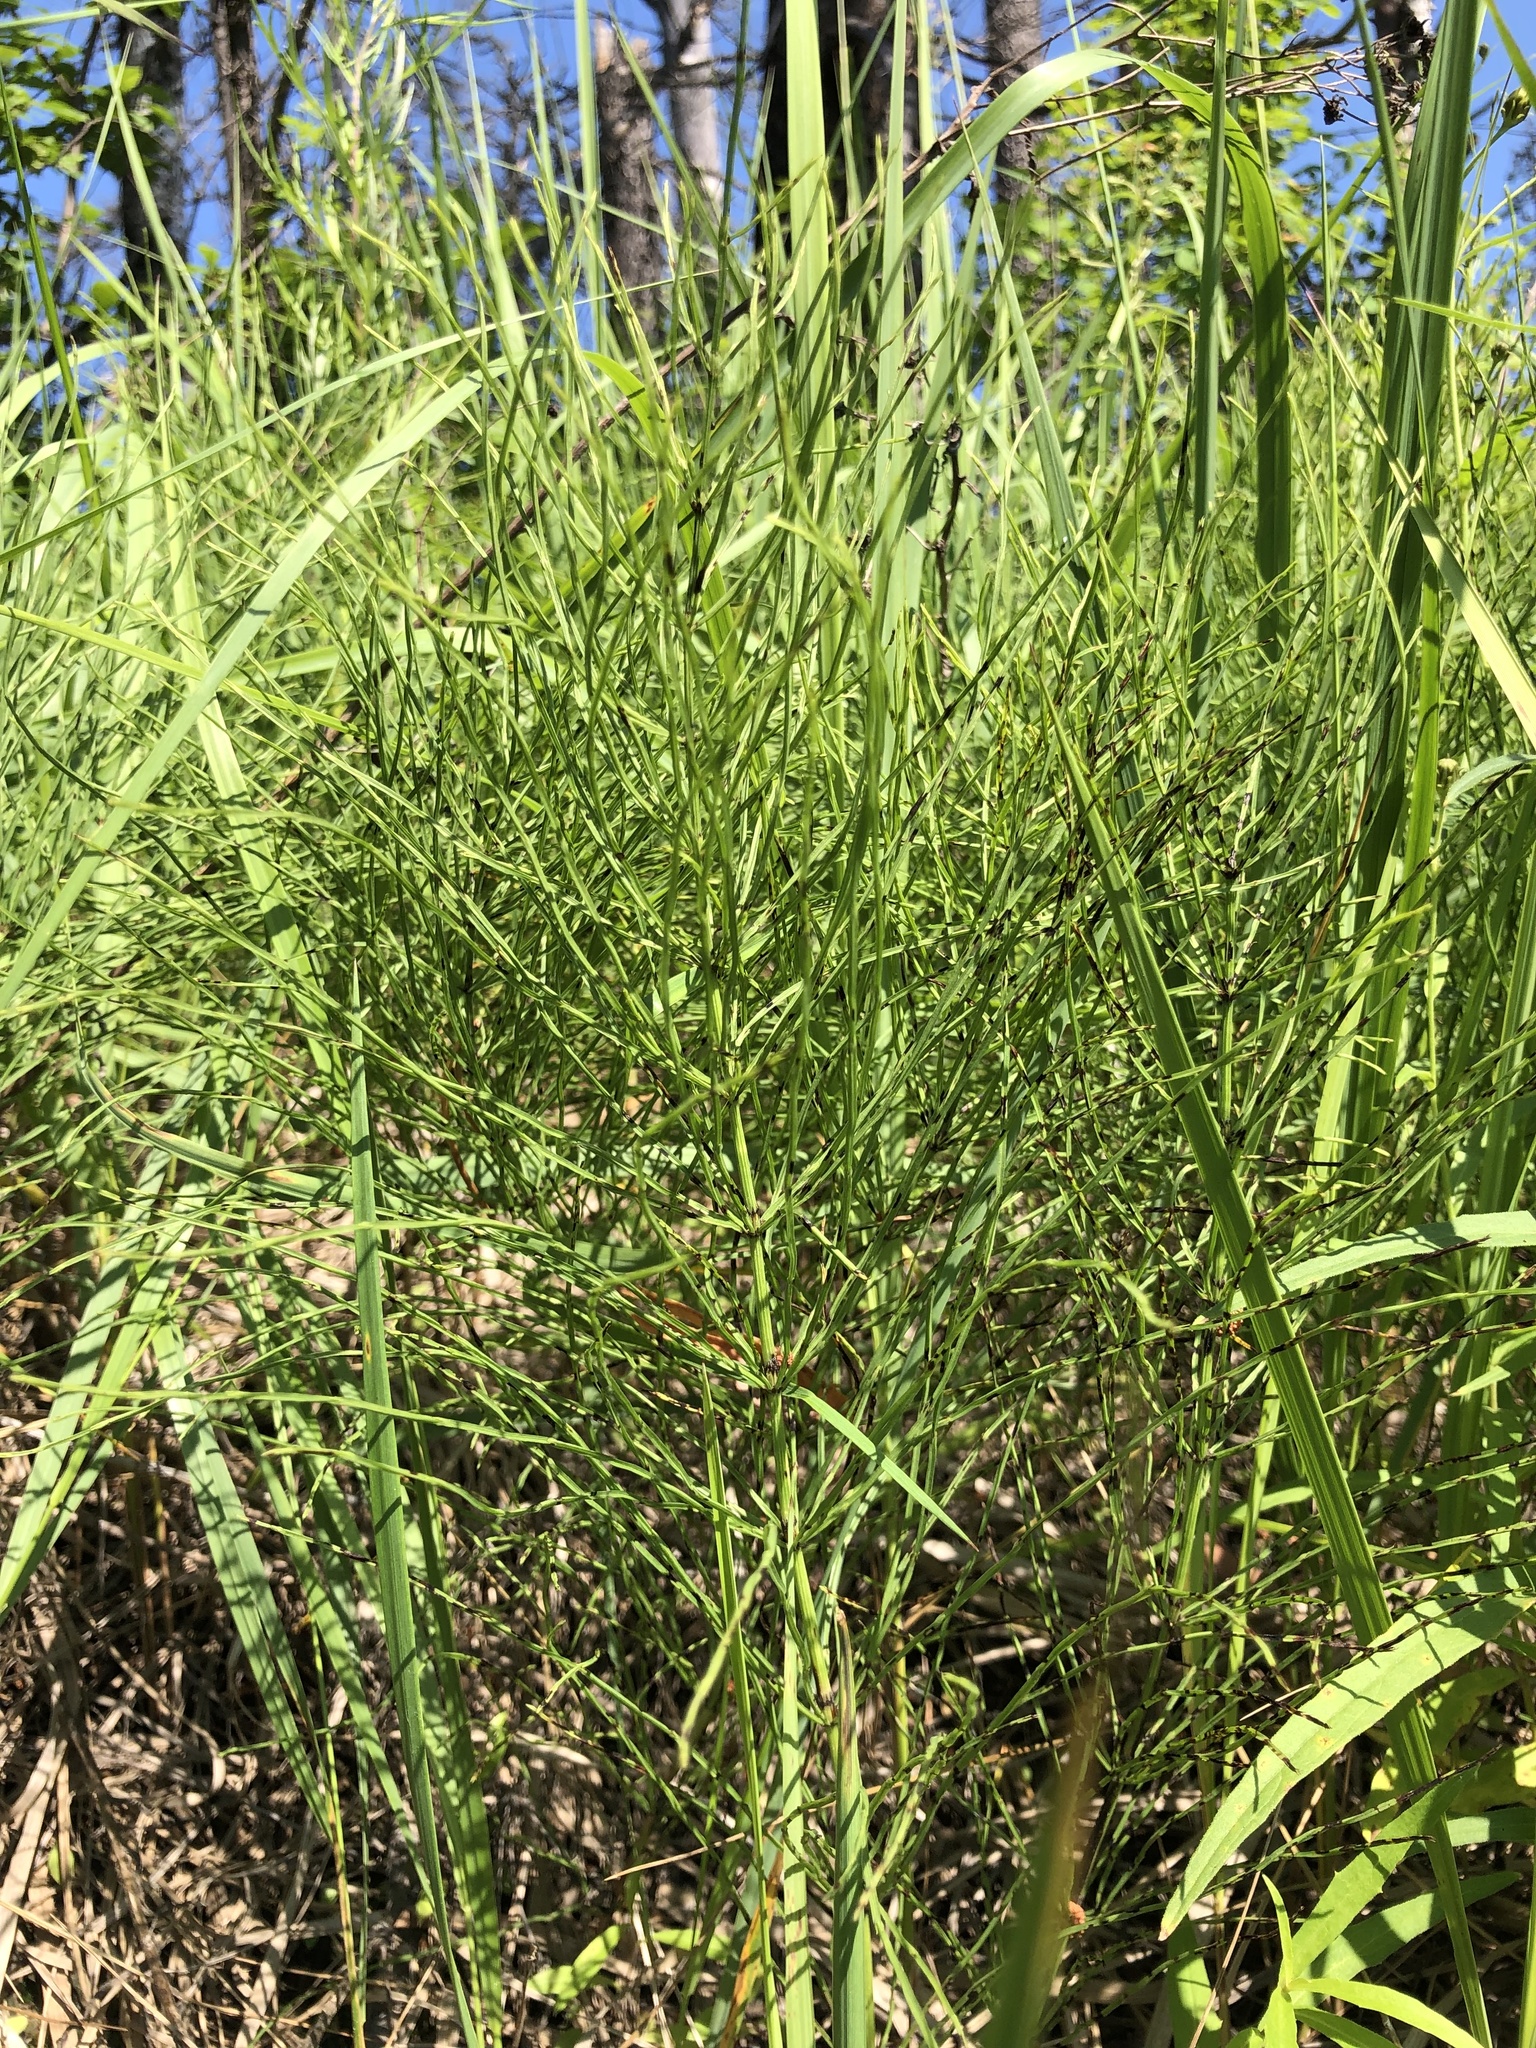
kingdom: Plantae
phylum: Tracheophyta
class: Polypodiopsida
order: Equisetales
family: Equisetaceae
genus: Equisetum
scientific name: Equisetum arvense
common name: Field horsetail
